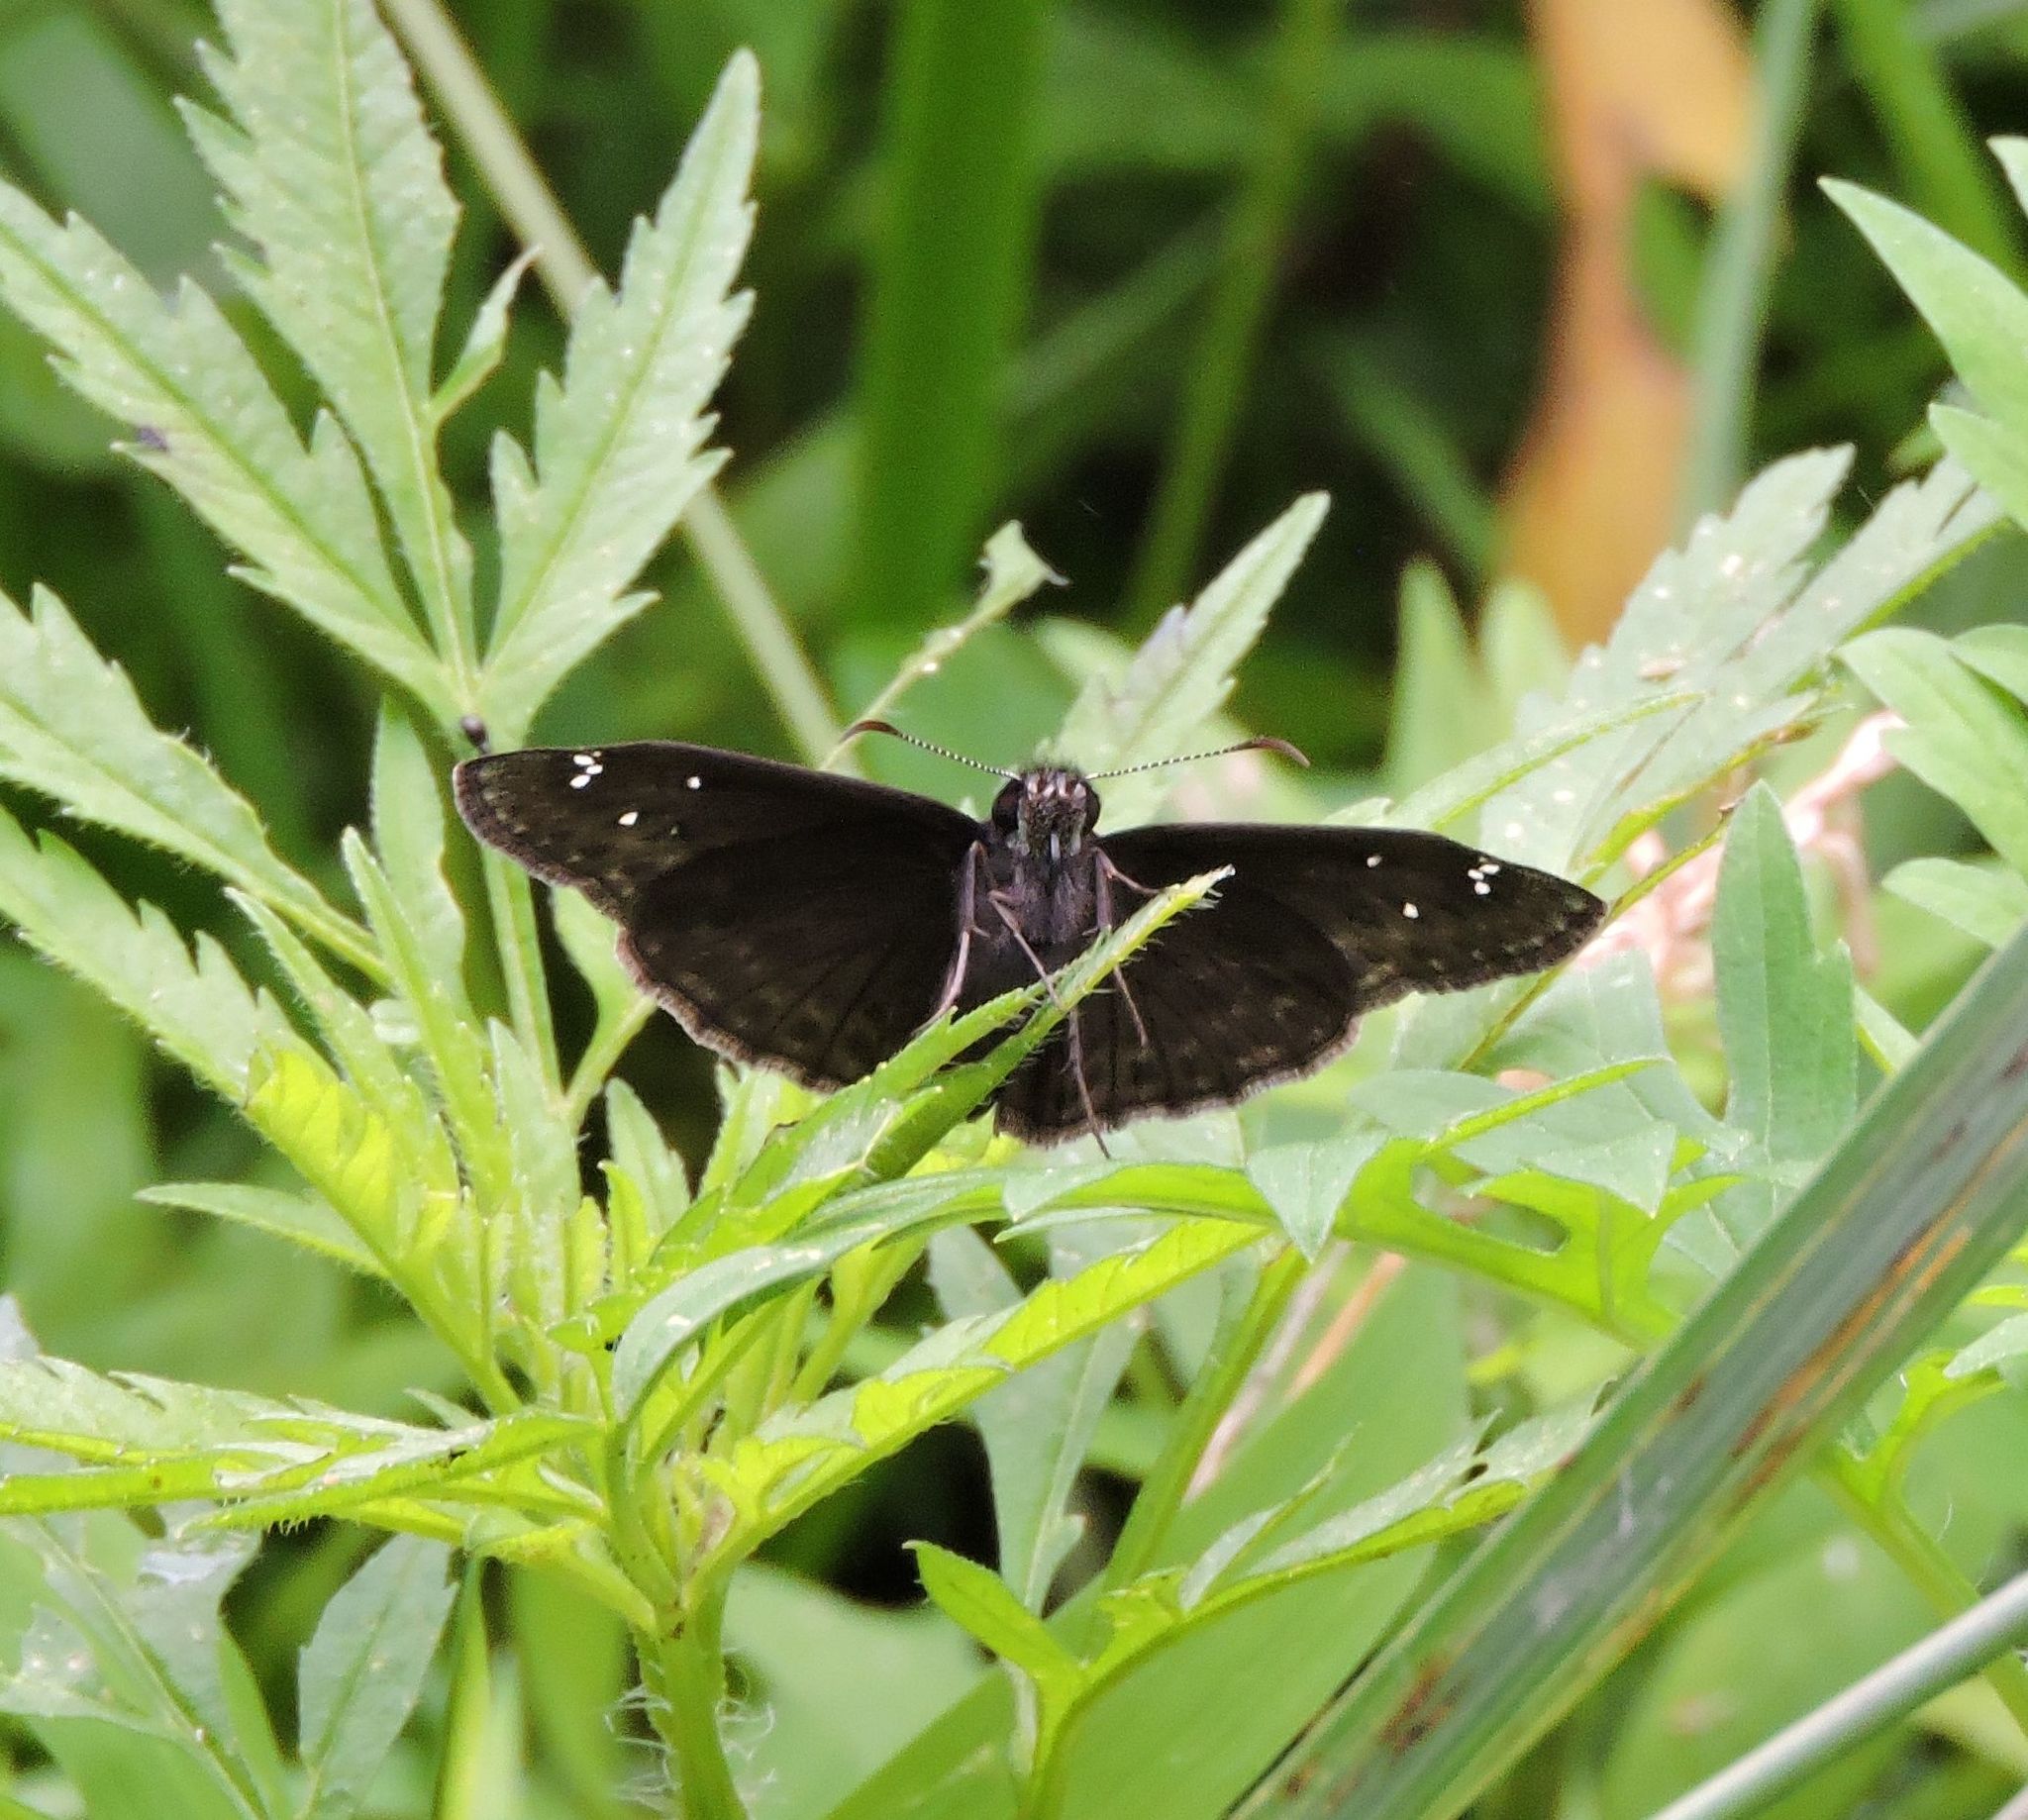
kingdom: Animalia
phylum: Arthropoda
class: Insecta
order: Lepidoptera
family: Hesperiidae
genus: Erynnis
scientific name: Erynnis horatius
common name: Horace's duskywing
